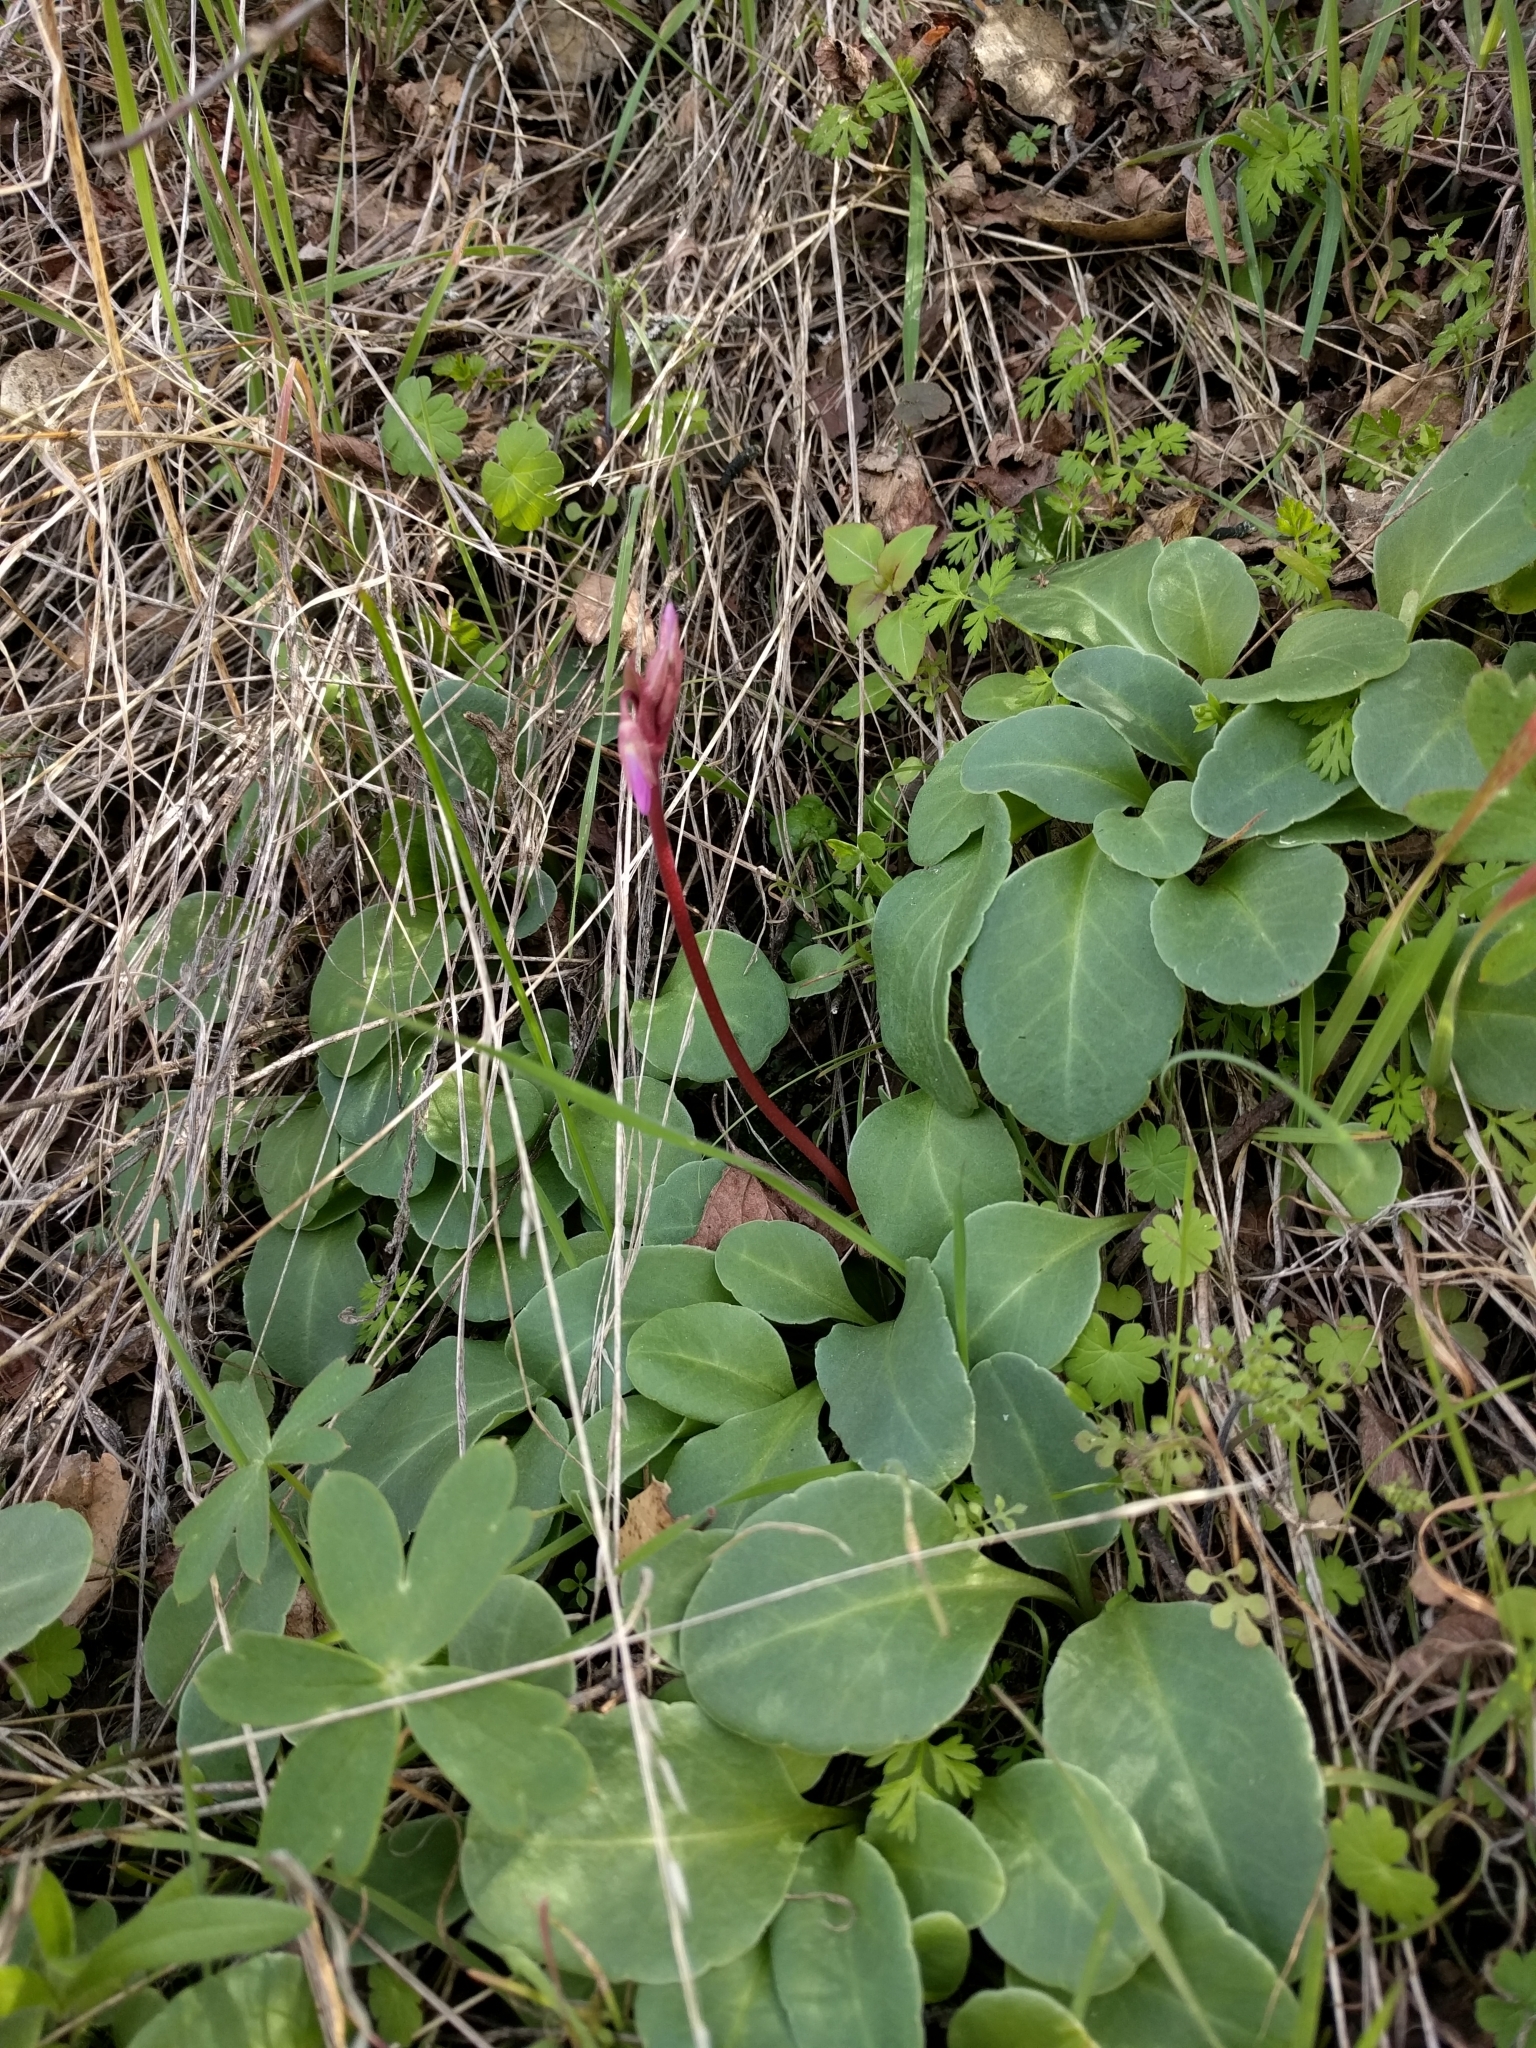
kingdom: Plantae
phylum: Tracheophyta
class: Magnoliopsida
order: Ericales
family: Primulaceae
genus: Dodecatheon
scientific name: Dodecatheon hendersonii
